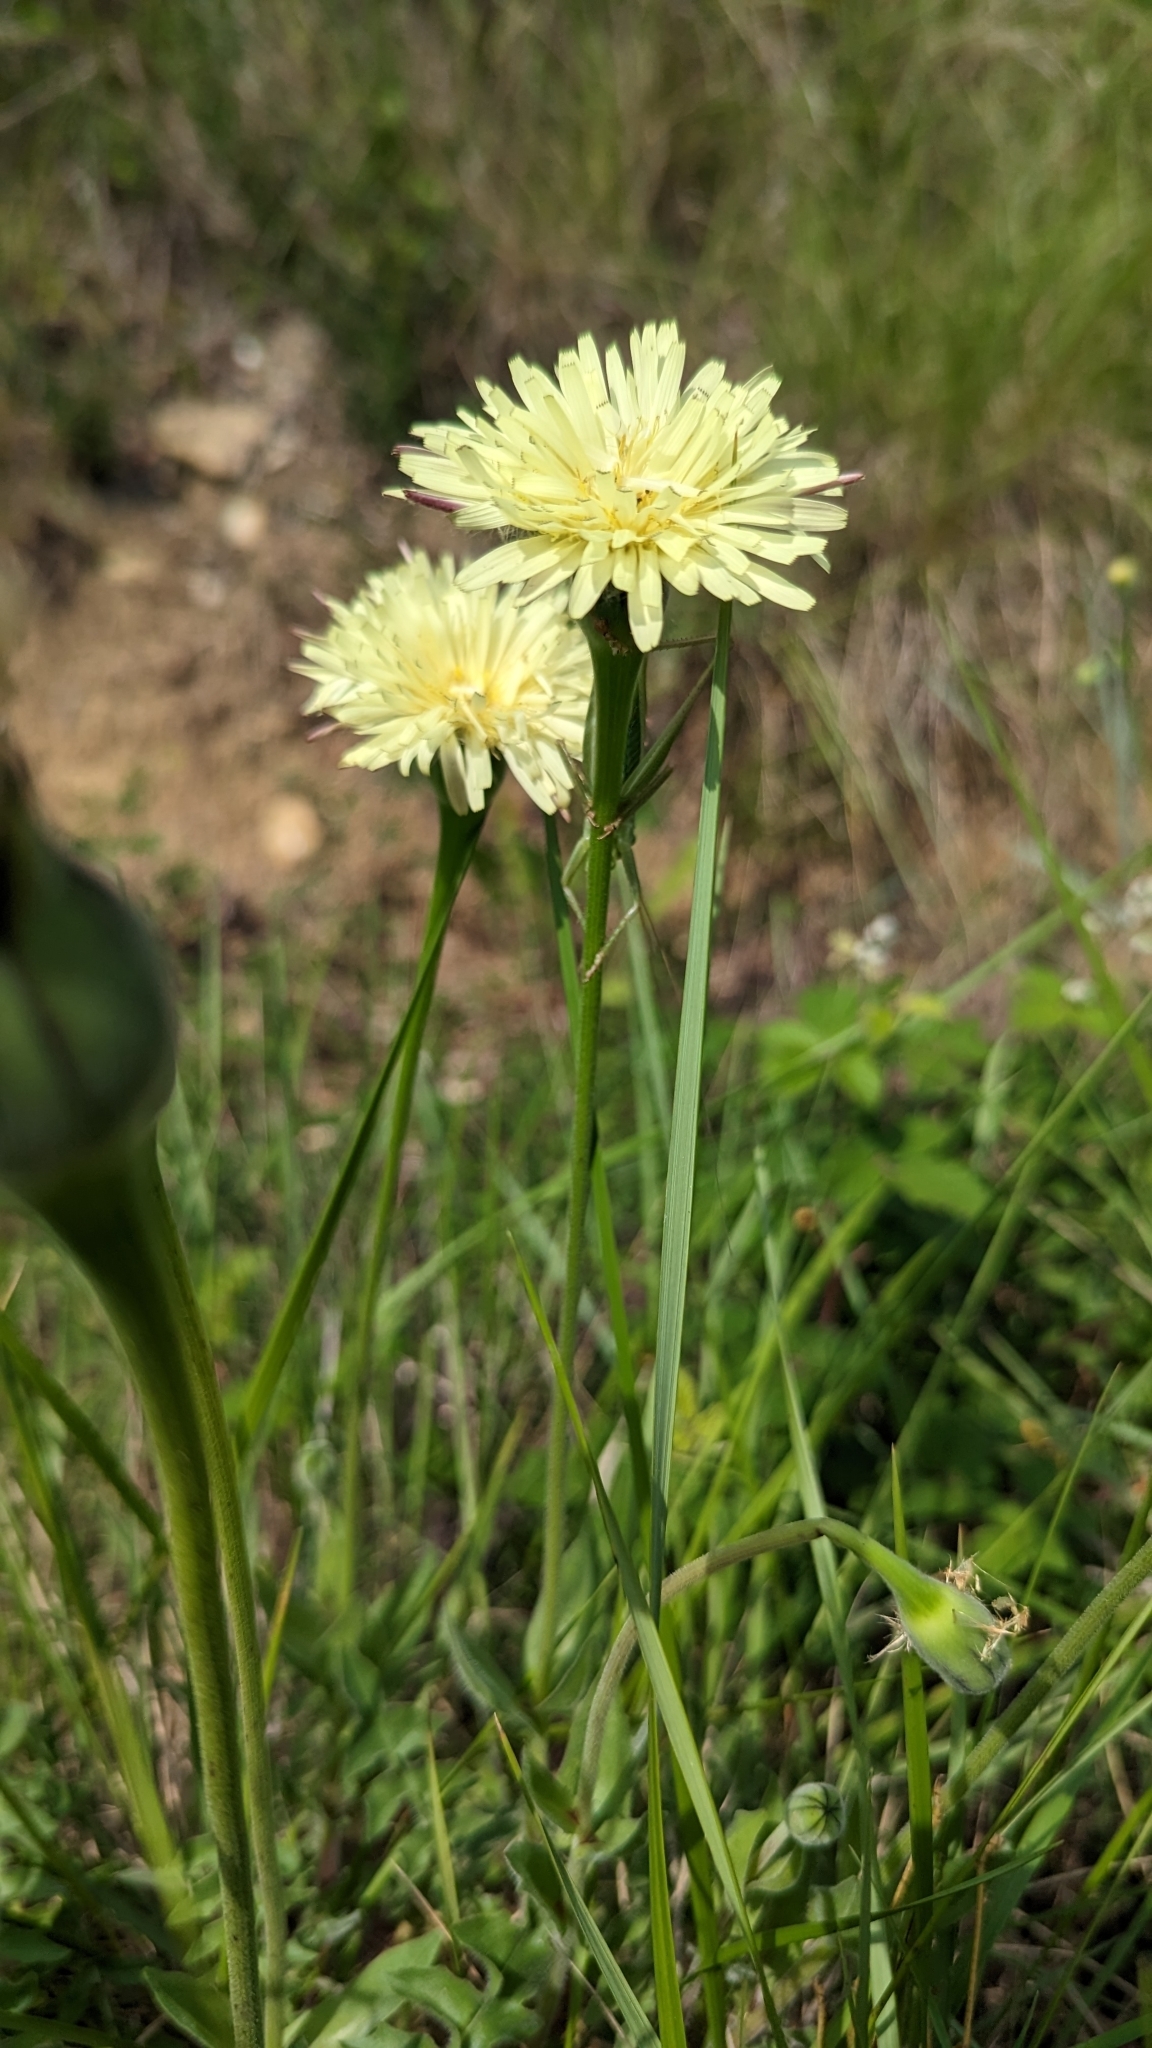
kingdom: Plantae
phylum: Tracheophyta
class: Magnoliopsida
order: Asterales
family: Asteraceae
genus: Urospermum
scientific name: Urospermum dalechampii
